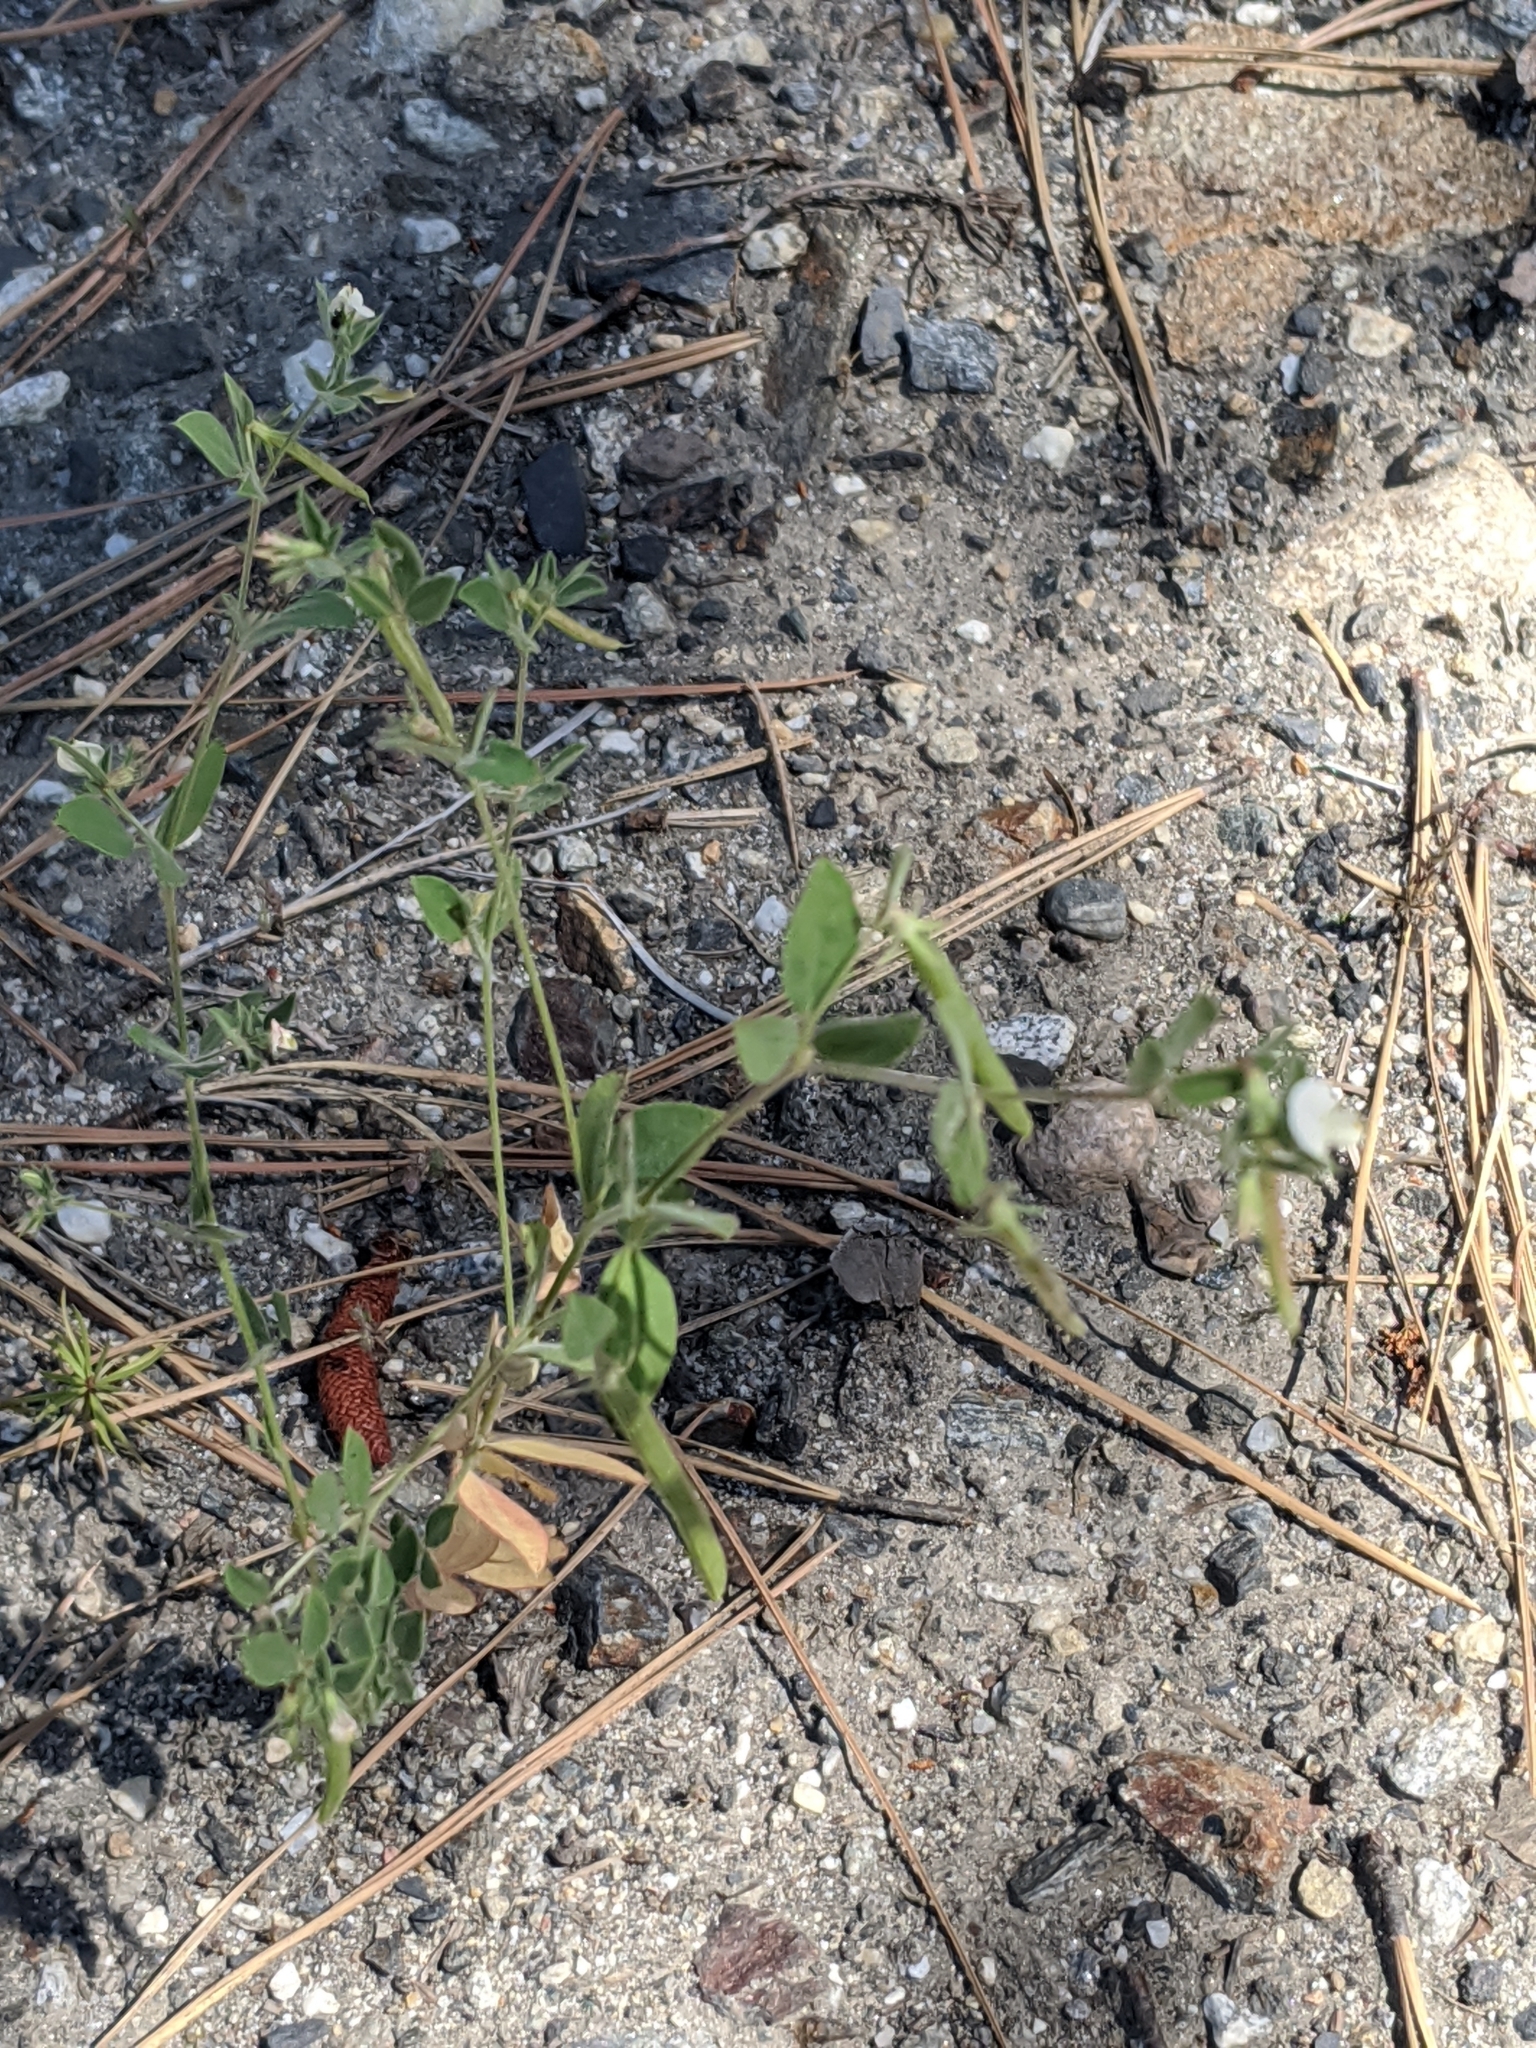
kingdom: Plantae
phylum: Tracheophyta
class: Magnoliopsida
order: Fabales
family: Fabaceae
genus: Acmispon
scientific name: Acmispon americanus
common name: American bird's-foot trefoil
